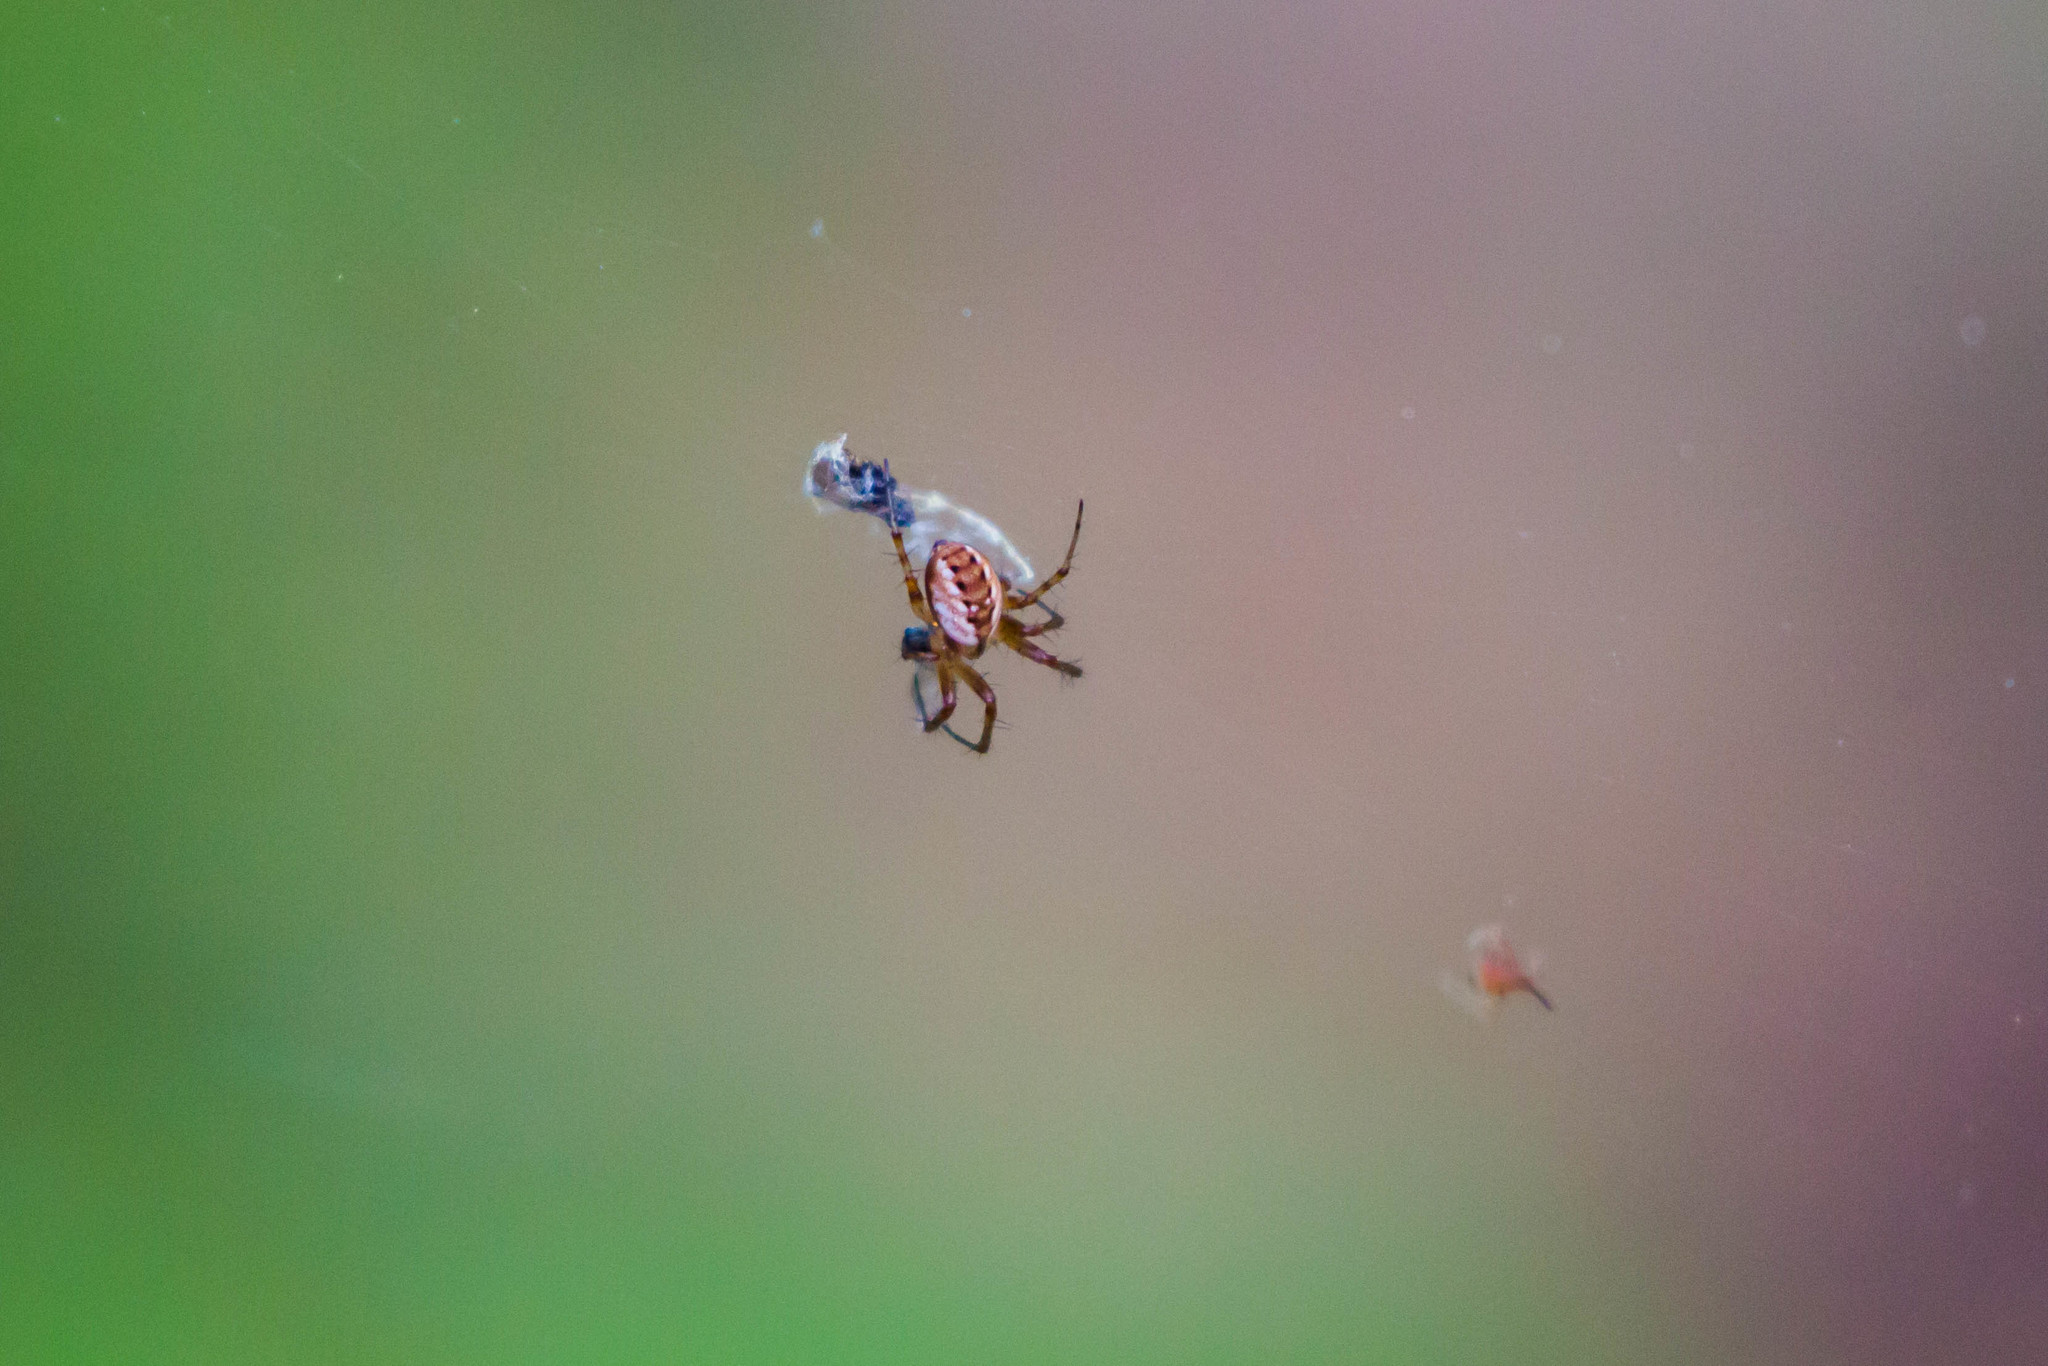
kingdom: Animalia
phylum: Arthropoda
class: Arachnida
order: Araneae
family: Araneidae
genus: Mangora
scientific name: Mangora placida
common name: Tuft-legged orbweaver
